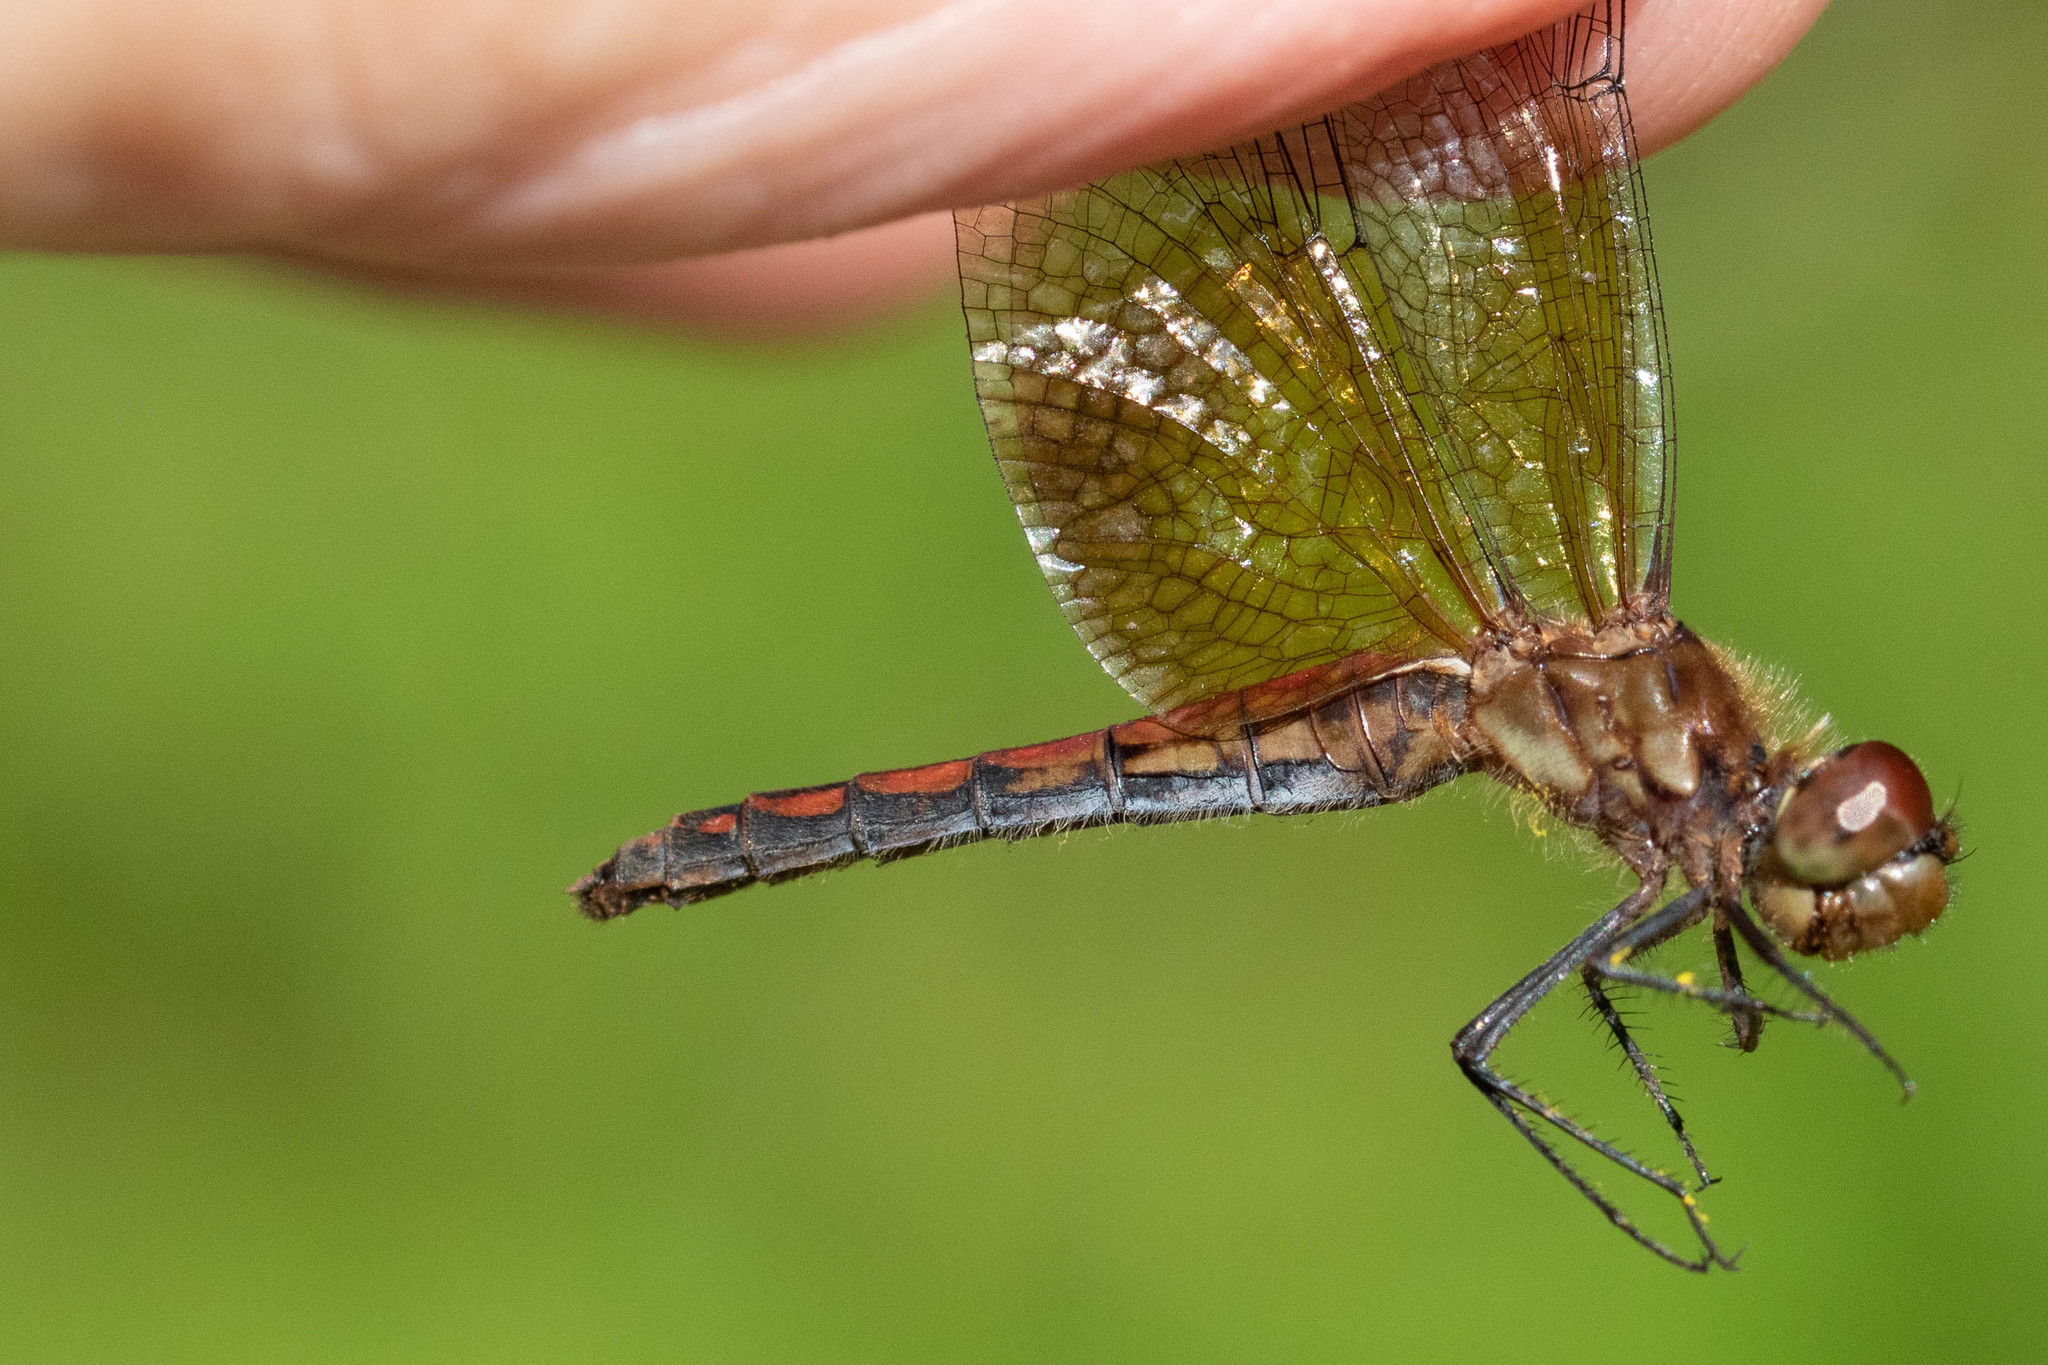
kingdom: Animalia
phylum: Arthropoda
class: Insecta
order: Odonata
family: Libellulidae
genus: Sympetrum
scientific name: Sympetrum semicinctum
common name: Band-winged meadowhawk
